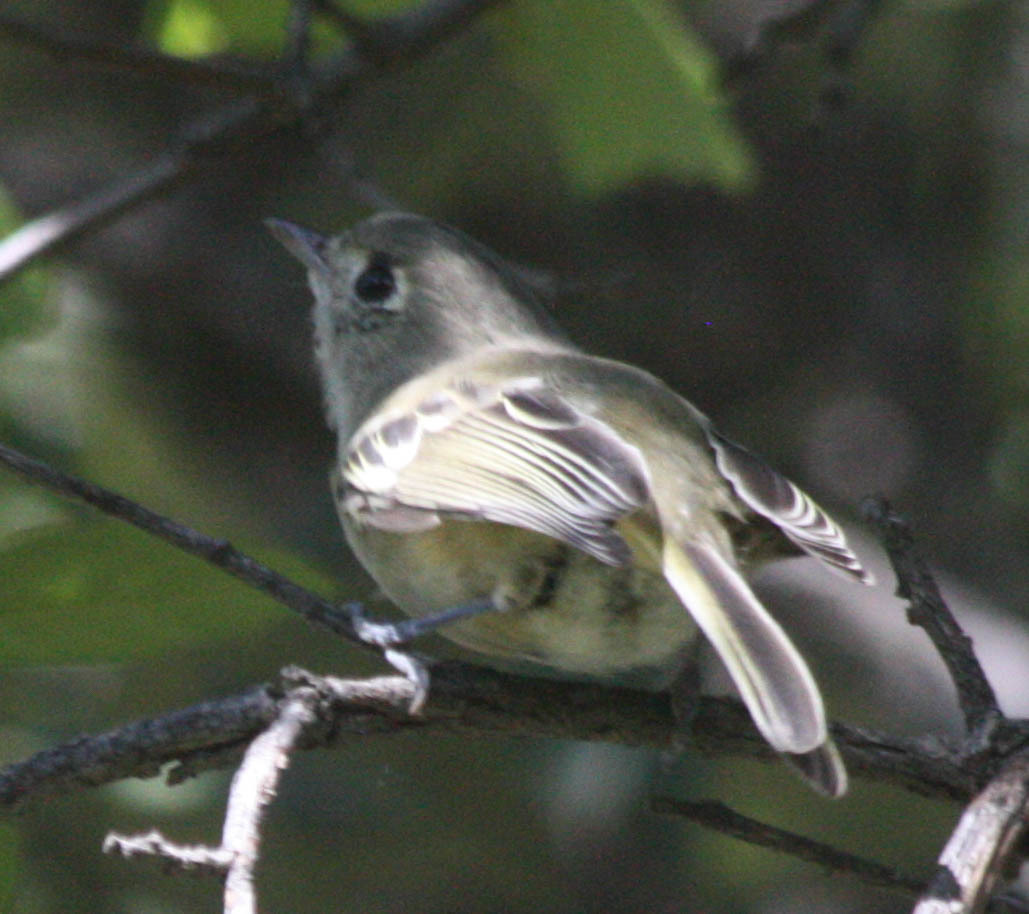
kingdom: Animalia
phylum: Chordata
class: Aves
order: Passeriformes
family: Vireonidae
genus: Vireo
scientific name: Vireo huttoni
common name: Hutton's vireo
